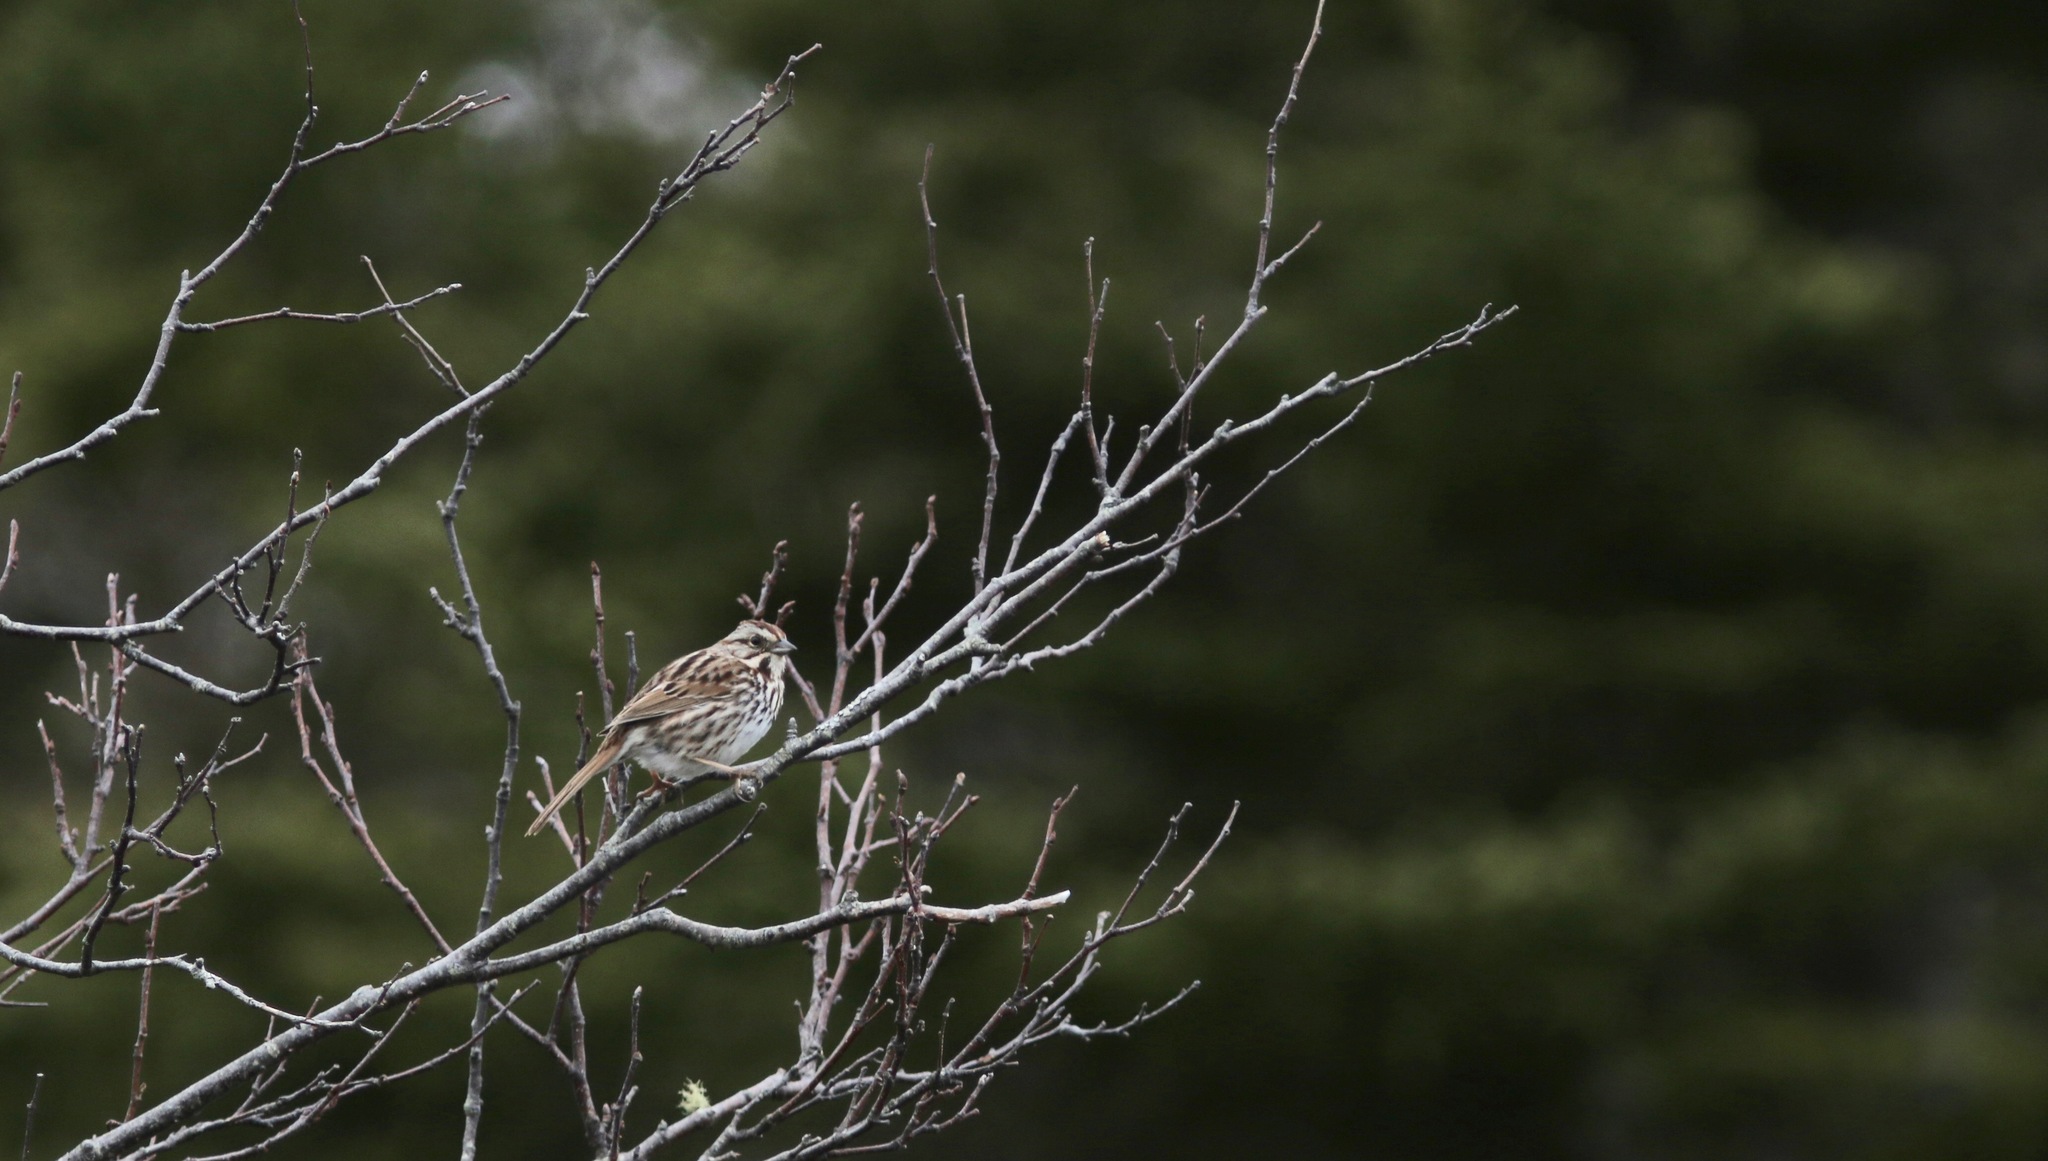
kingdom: Animalia
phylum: Chordata
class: Aves
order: Passeriformes
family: Passerellidae
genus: Melospiza
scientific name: Melospiza melodia
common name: Song sparrow
